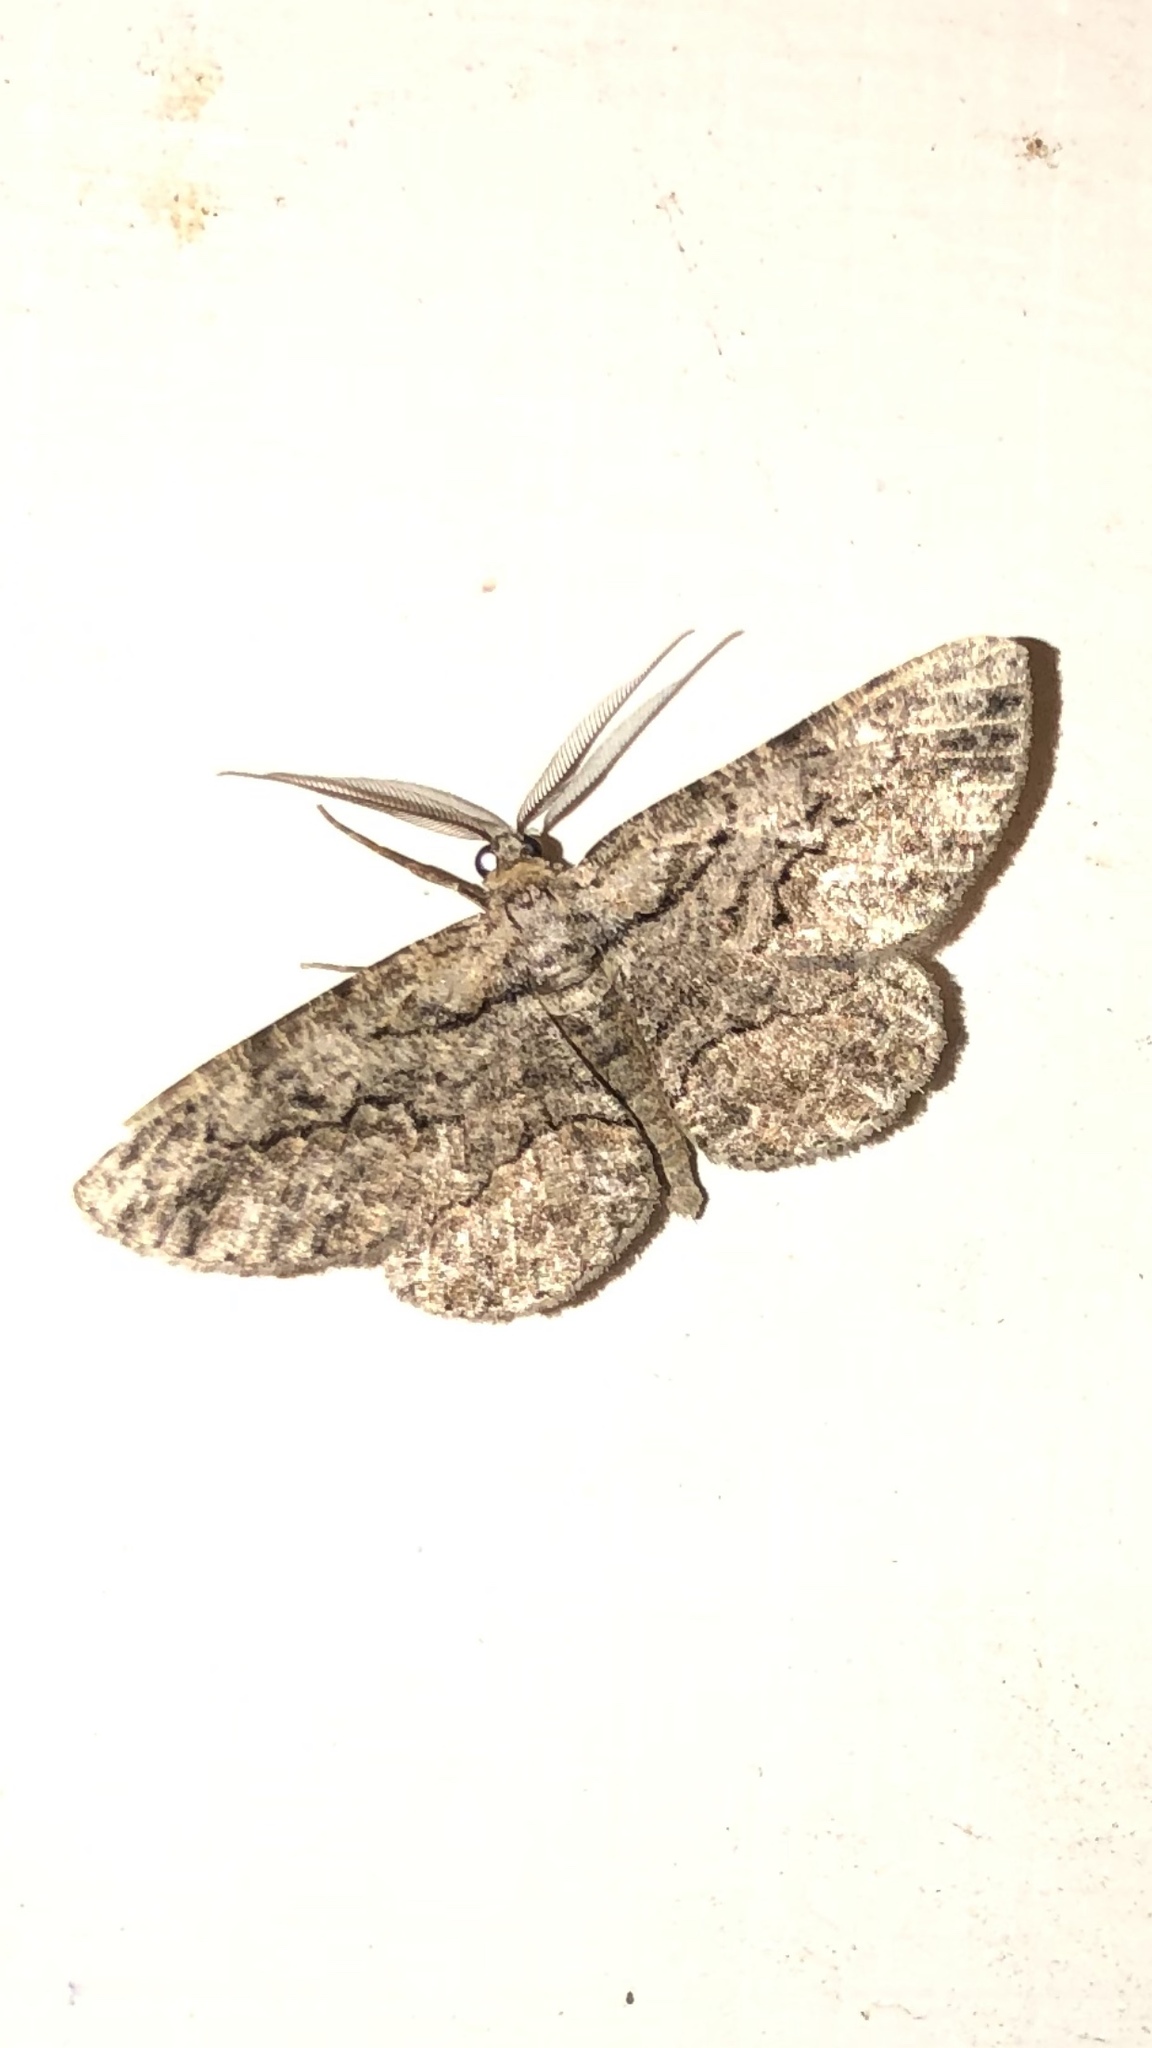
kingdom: Animalia
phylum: Arthropoda
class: Insecta
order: Lepidoptera
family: Geometridae
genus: Anavitrinella
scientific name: Anavitrinella pampinaria
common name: Common gray
